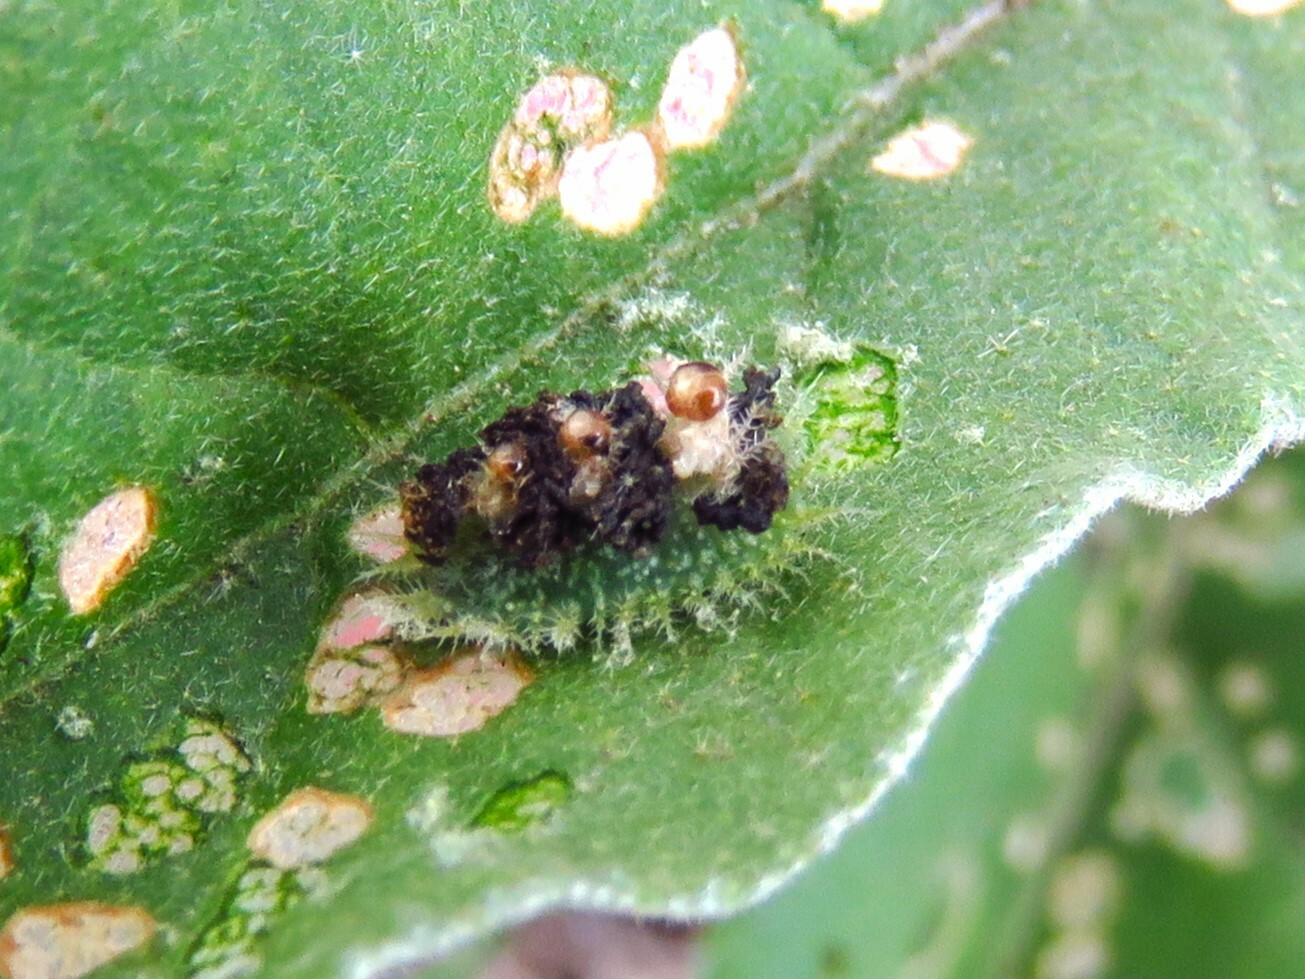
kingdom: Animalia
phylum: Arthropoda
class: Insecta
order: Coleoptera
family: Chrysomelidae
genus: Gratiana
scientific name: Gratiana pallidula
